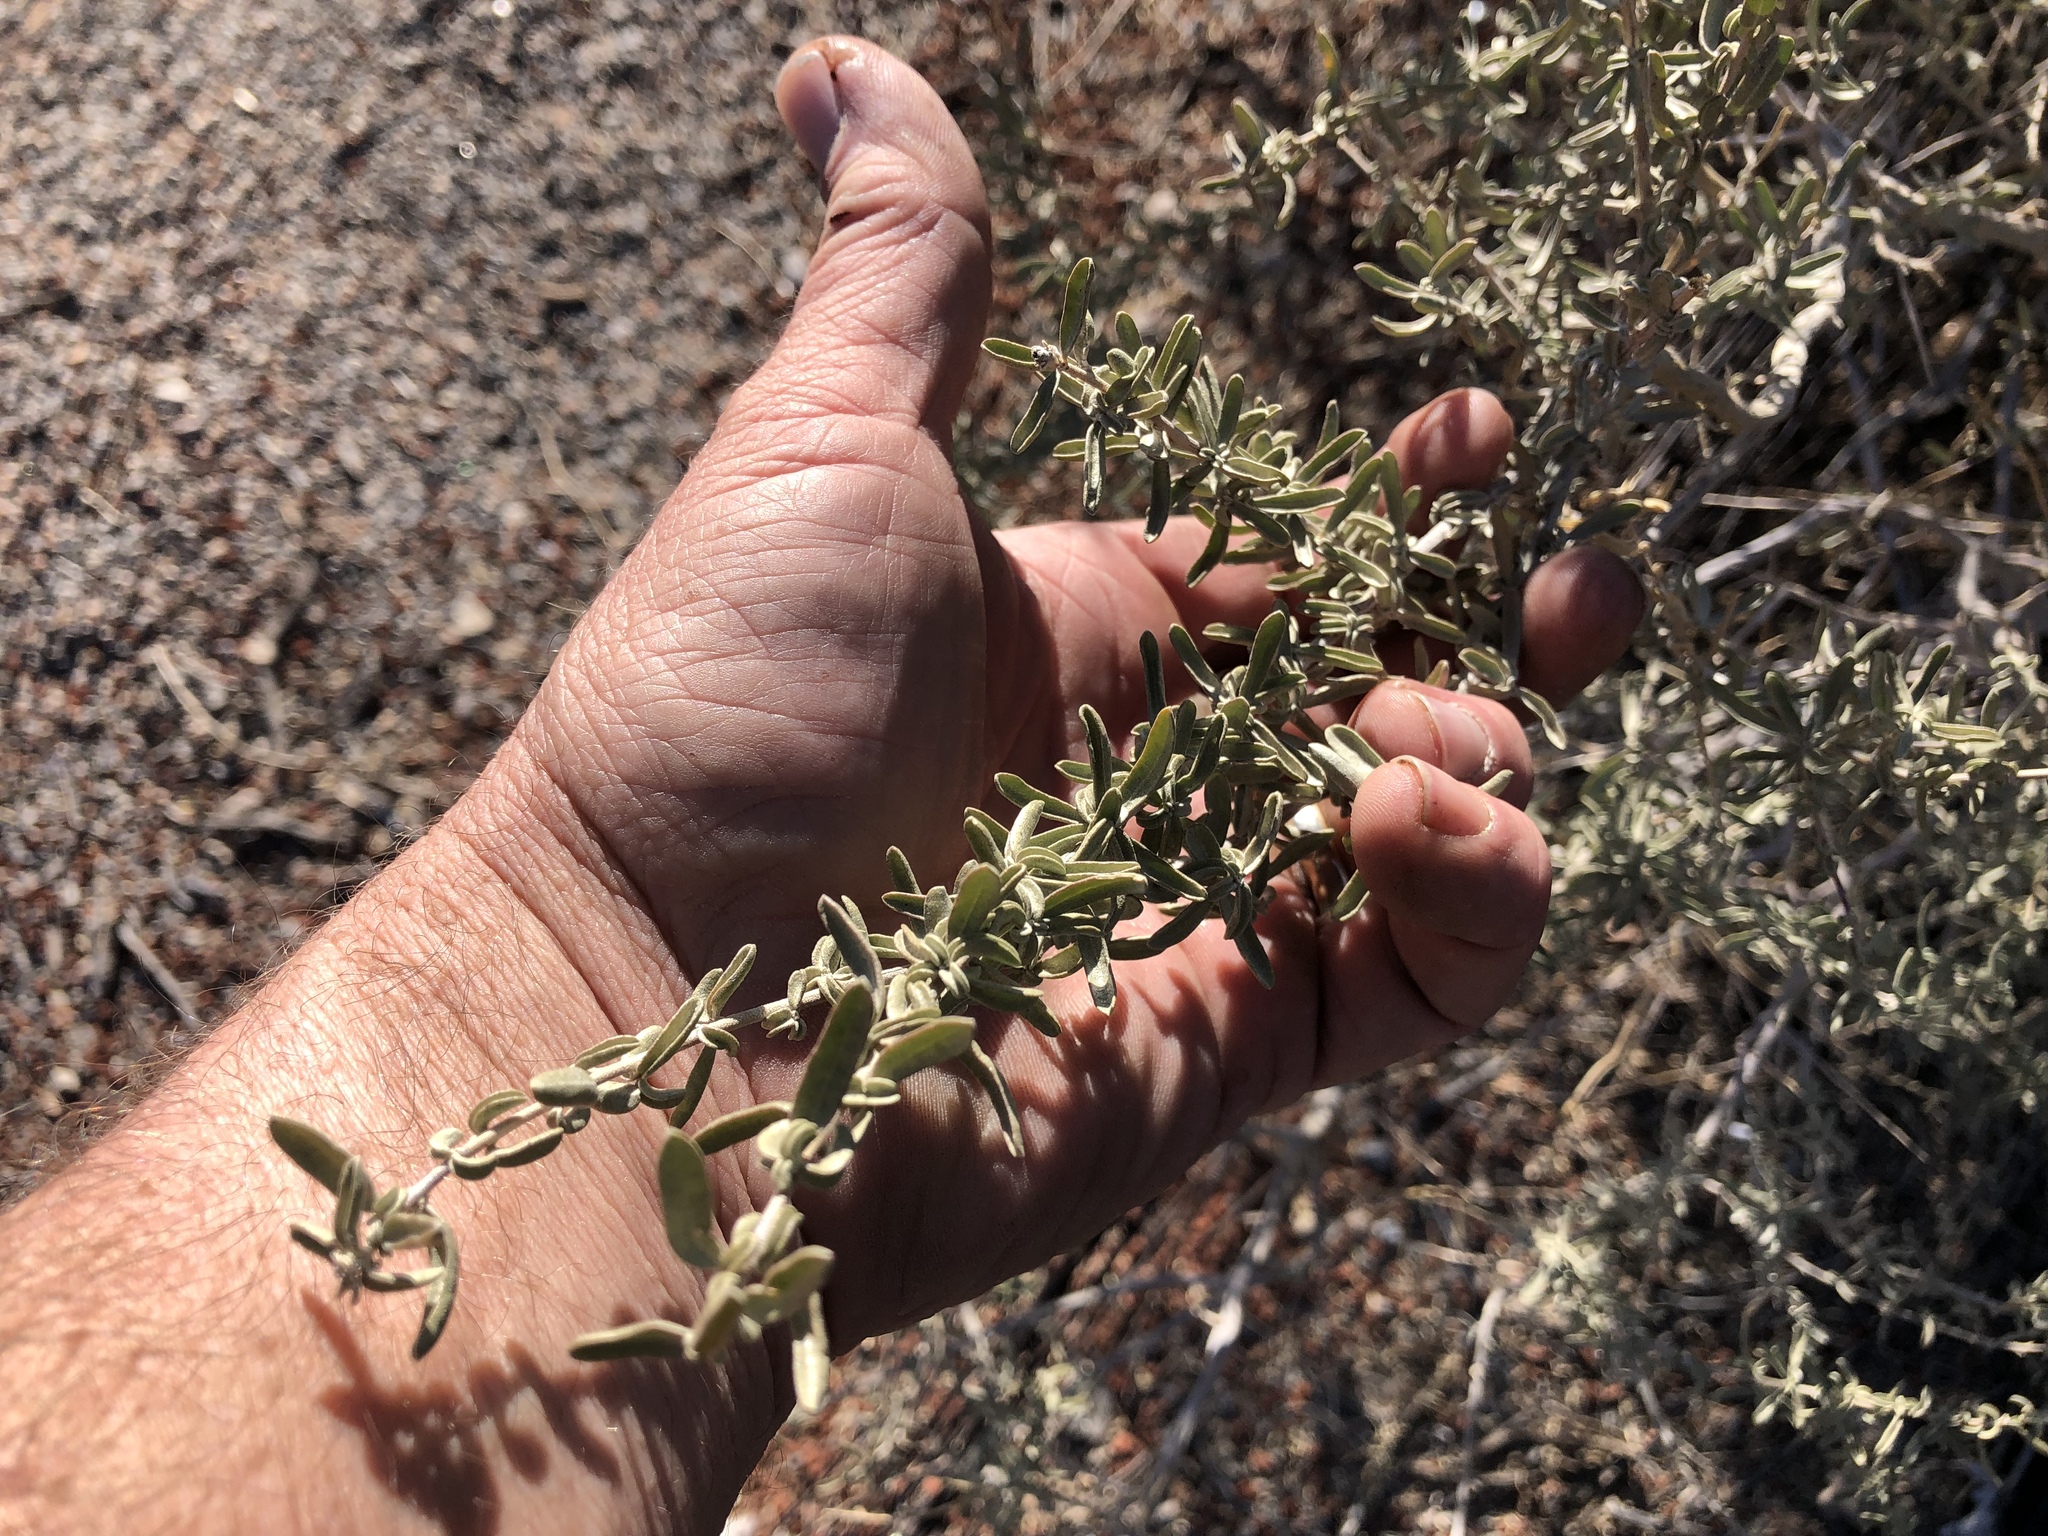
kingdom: Plantae
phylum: Tracheophyta
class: Magnoliopsida
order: Caryophyllales
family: Amaranthaceae
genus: Atriplex
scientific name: Atriplex canescens
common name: Four-wing saltbush
